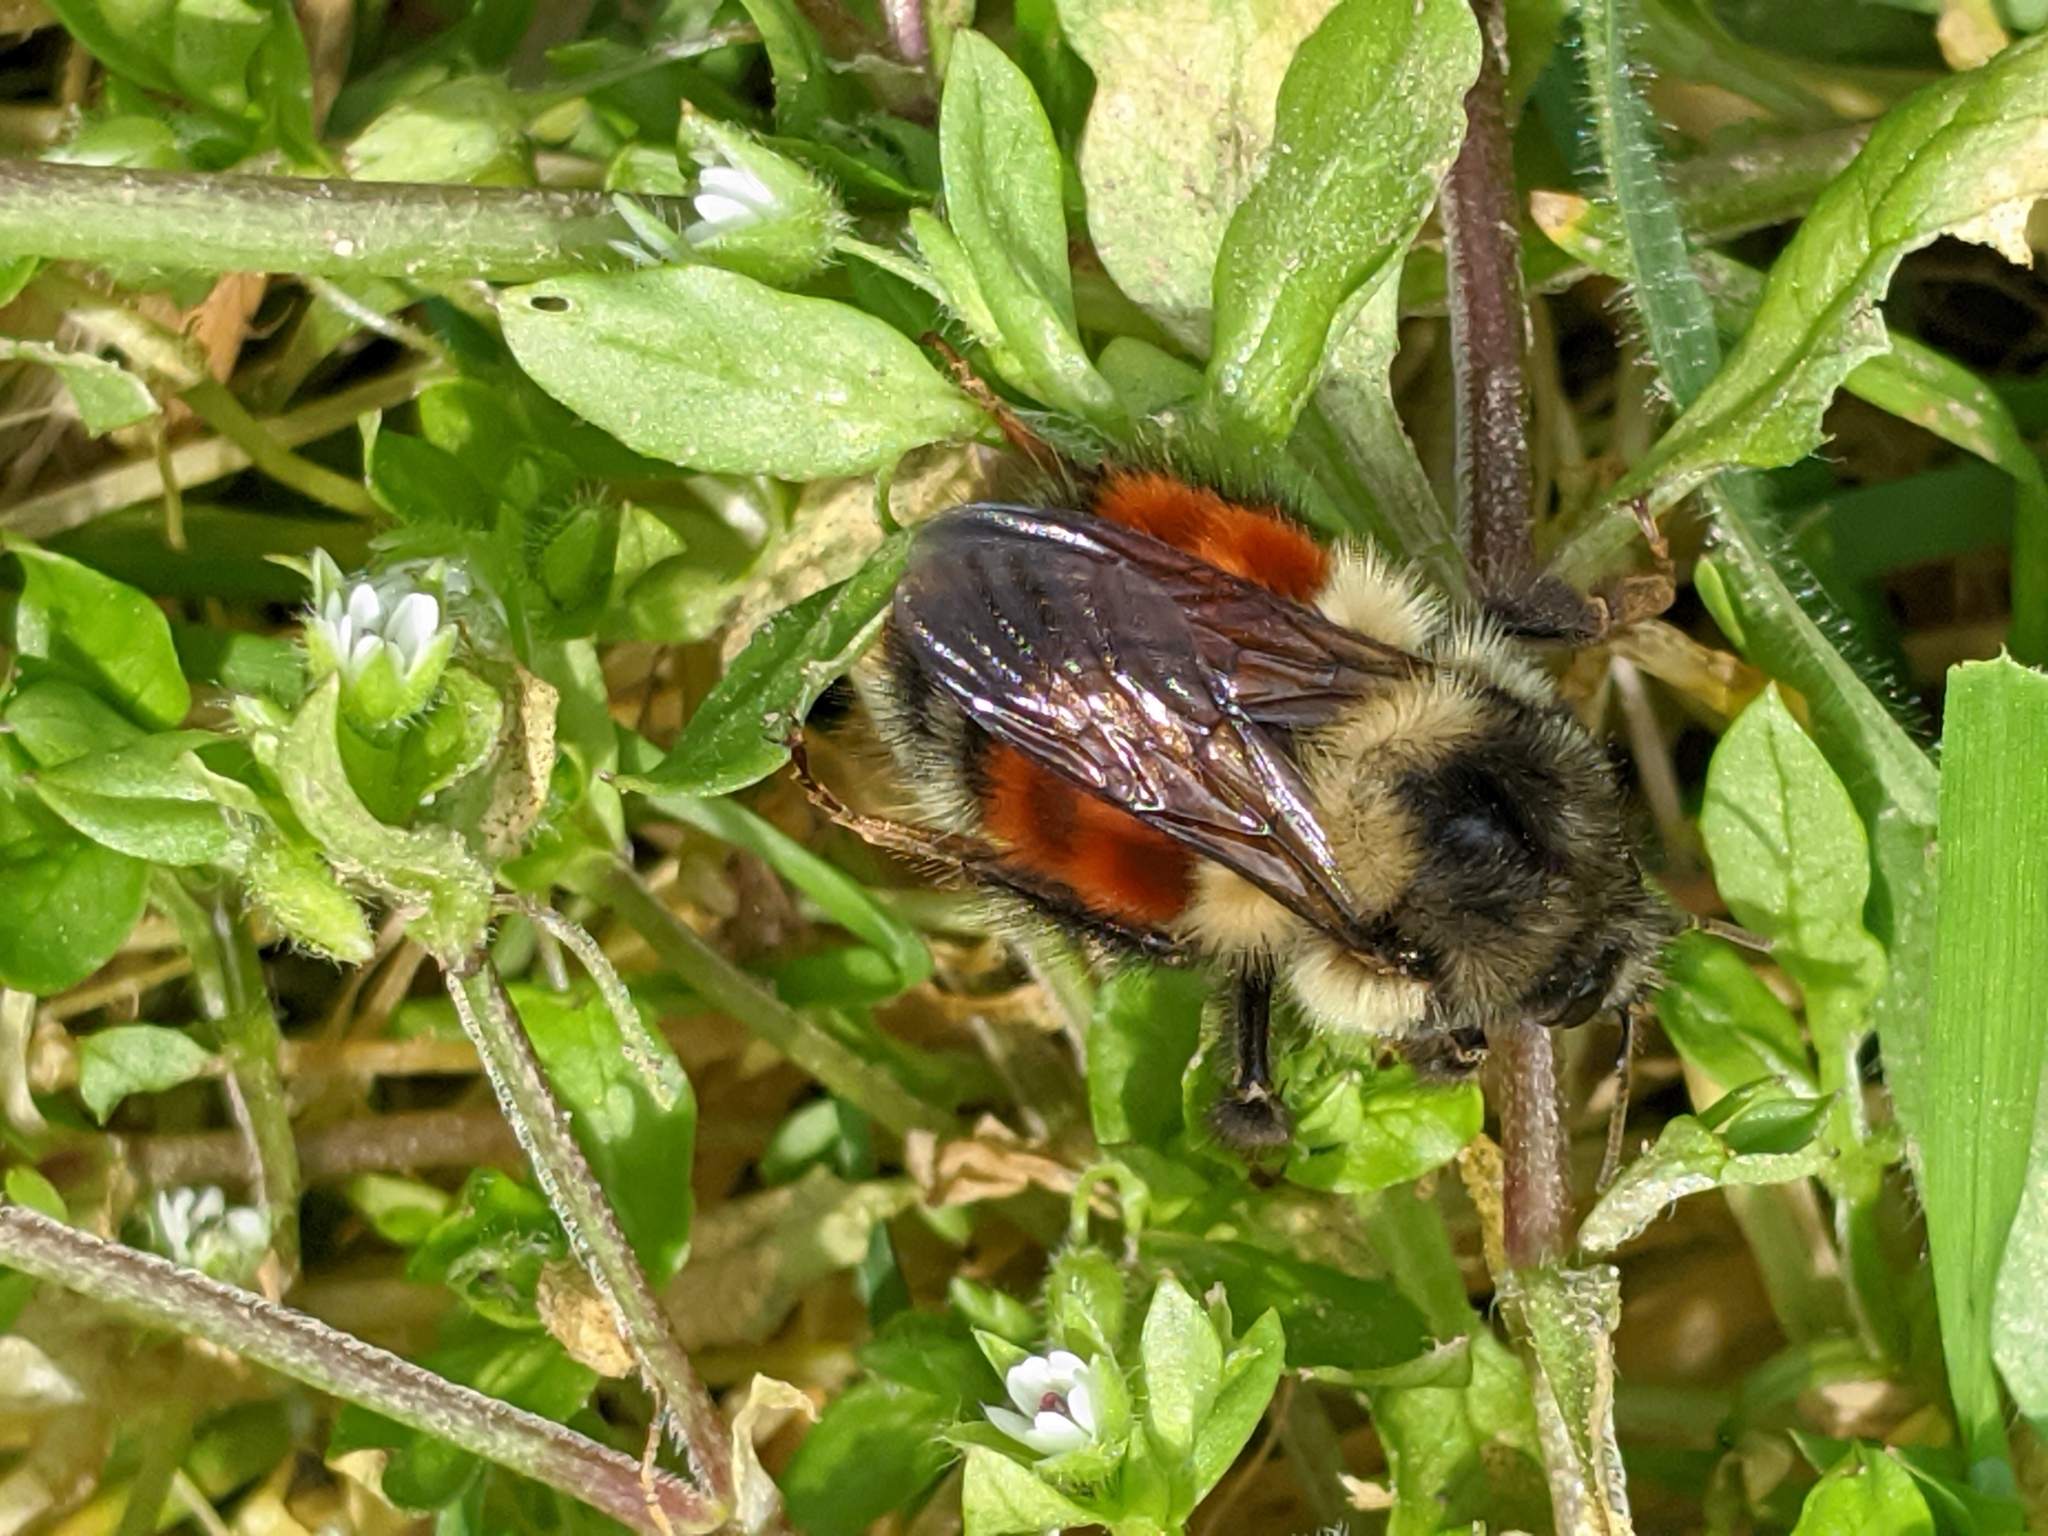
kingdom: Animalia
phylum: Arthropoda
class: Insecta
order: Hymenoptera
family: Apidae
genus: Bombus
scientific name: Bombus melanopygus
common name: Black tail bumble bee
